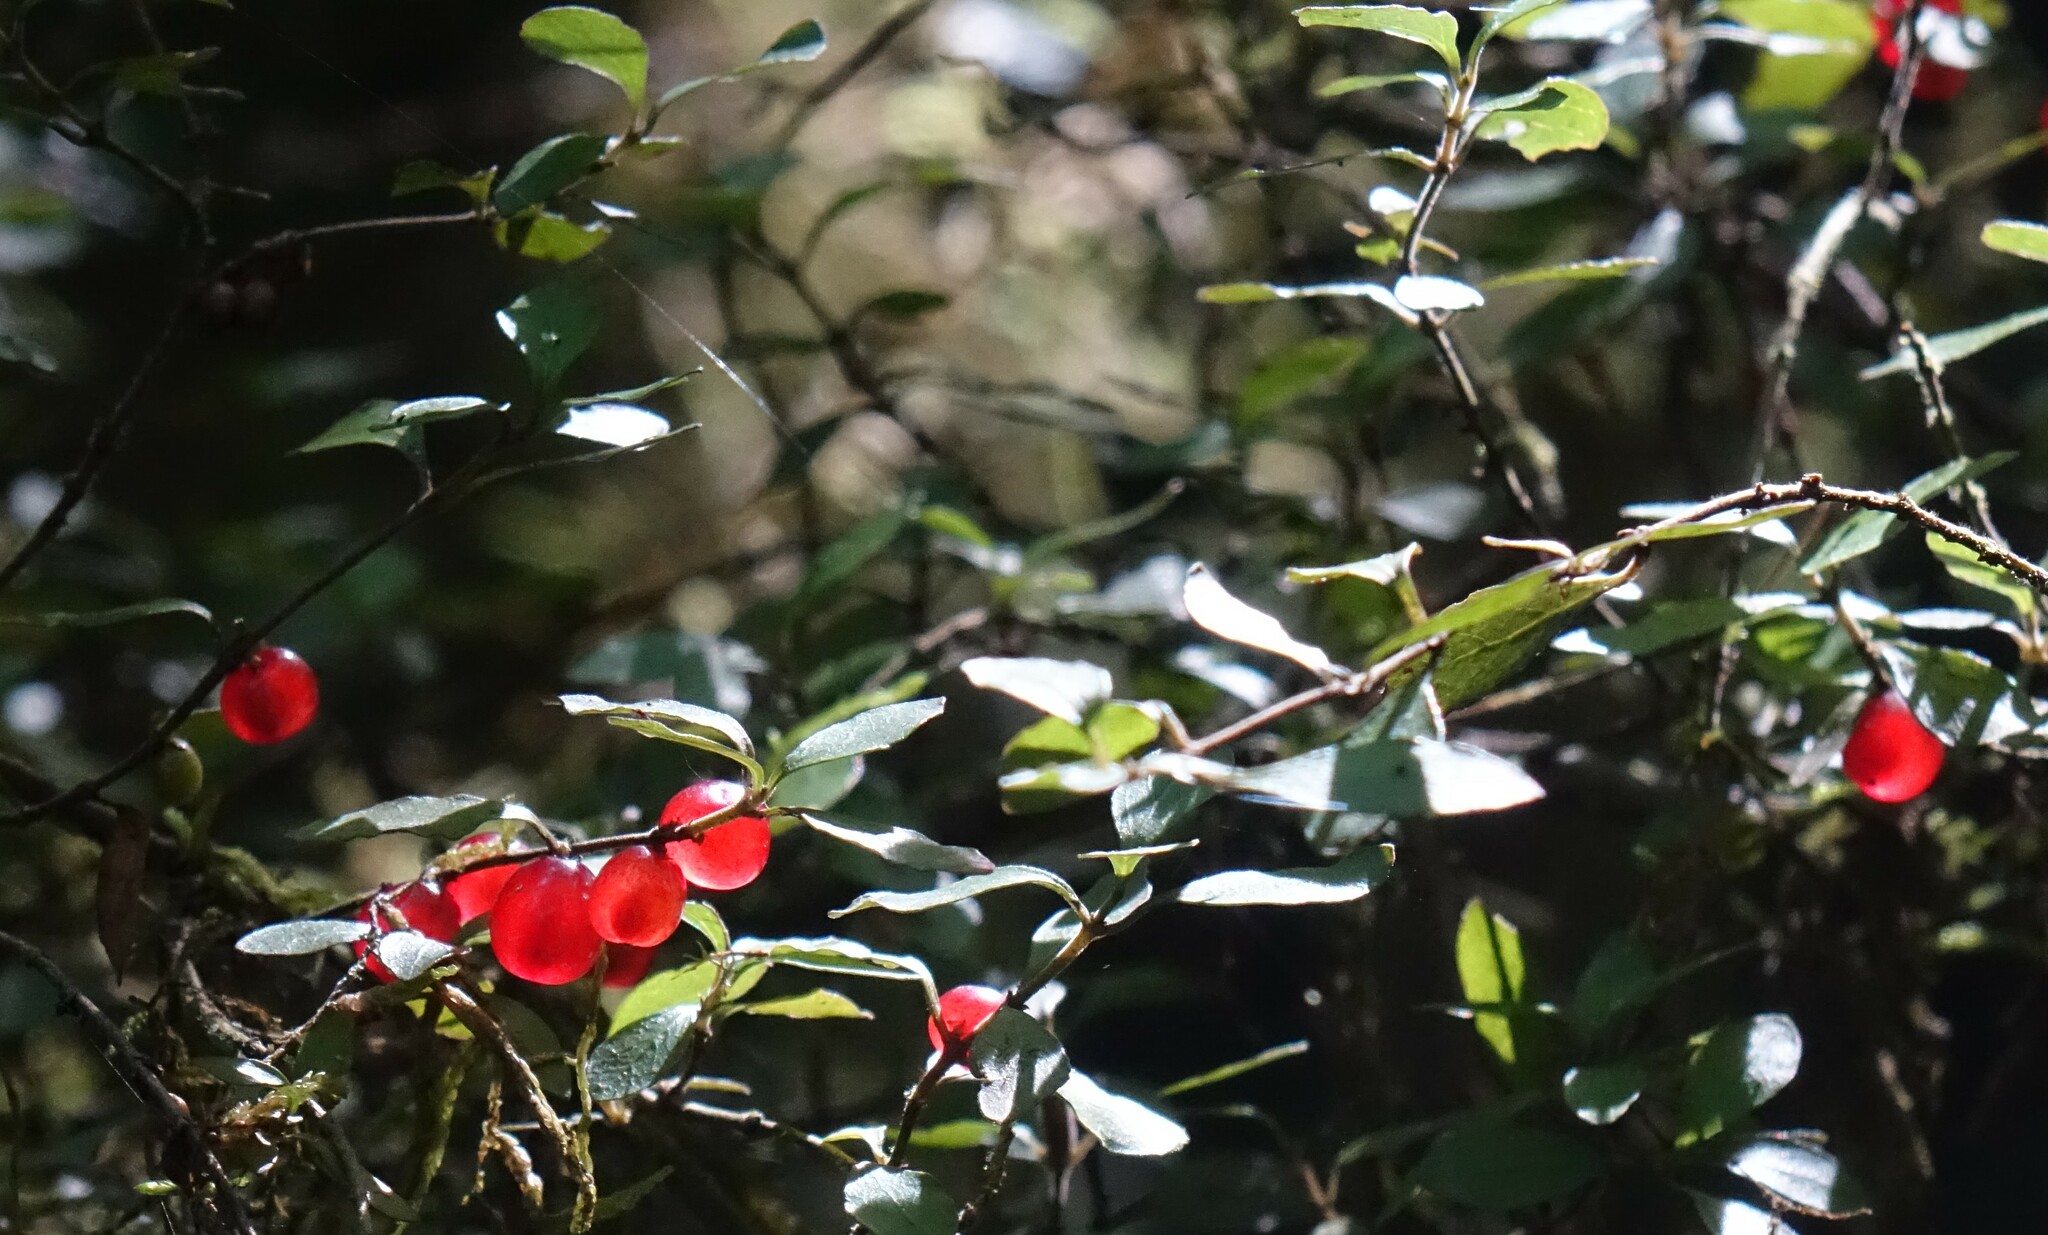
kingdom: Plantae
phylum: Tracheophyta
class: Magnoliopsida
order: Gentianales
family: Rubiaceae
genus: Coprosma
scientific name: Coprosma rhamnoides
